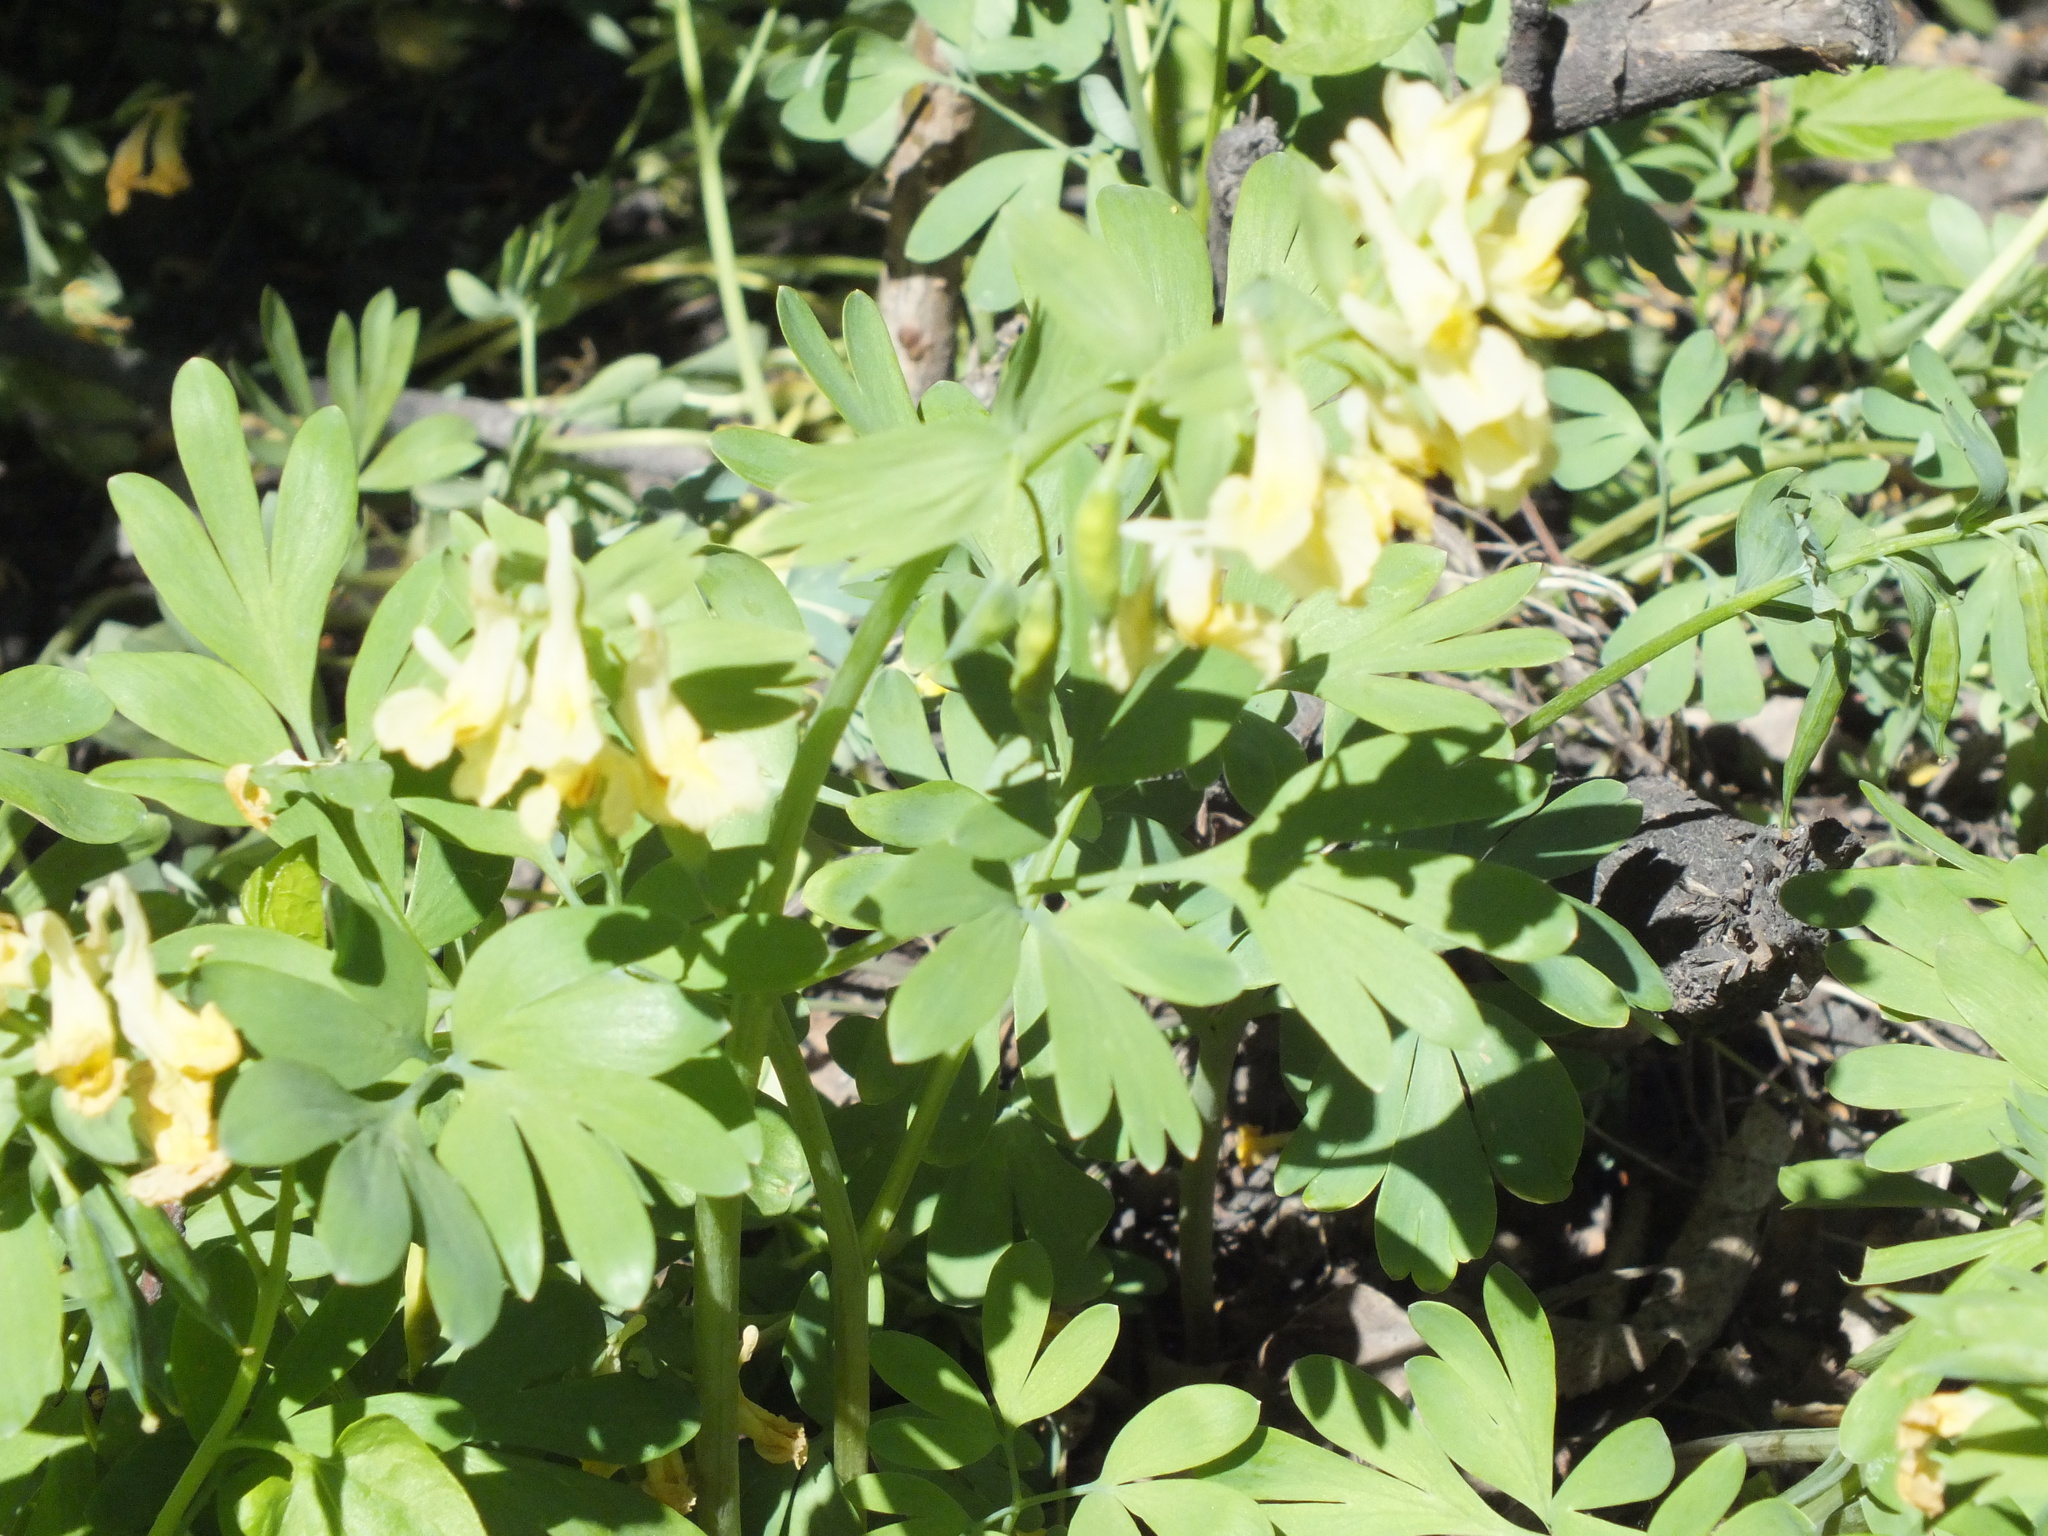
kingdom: Plantae
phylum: Tracheophyta
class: Magnoliopsida
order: Ranunculales
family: Papaveraceae
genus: Corydalis
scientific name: Corydalis bracteata
